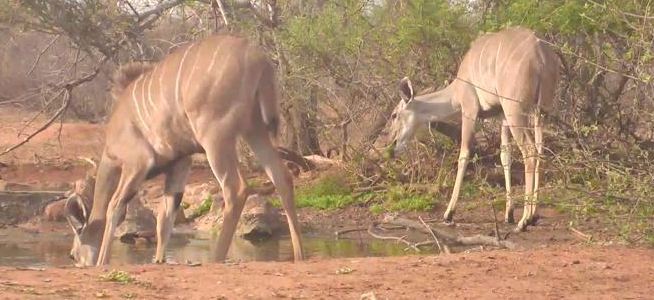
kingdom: Animalia
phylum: Chordata
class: Mammalia
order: Artiodactyla
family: Bovidae
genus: Tragelaphus
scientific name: Tragelaphus strepsiceros
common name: Greater kudu
